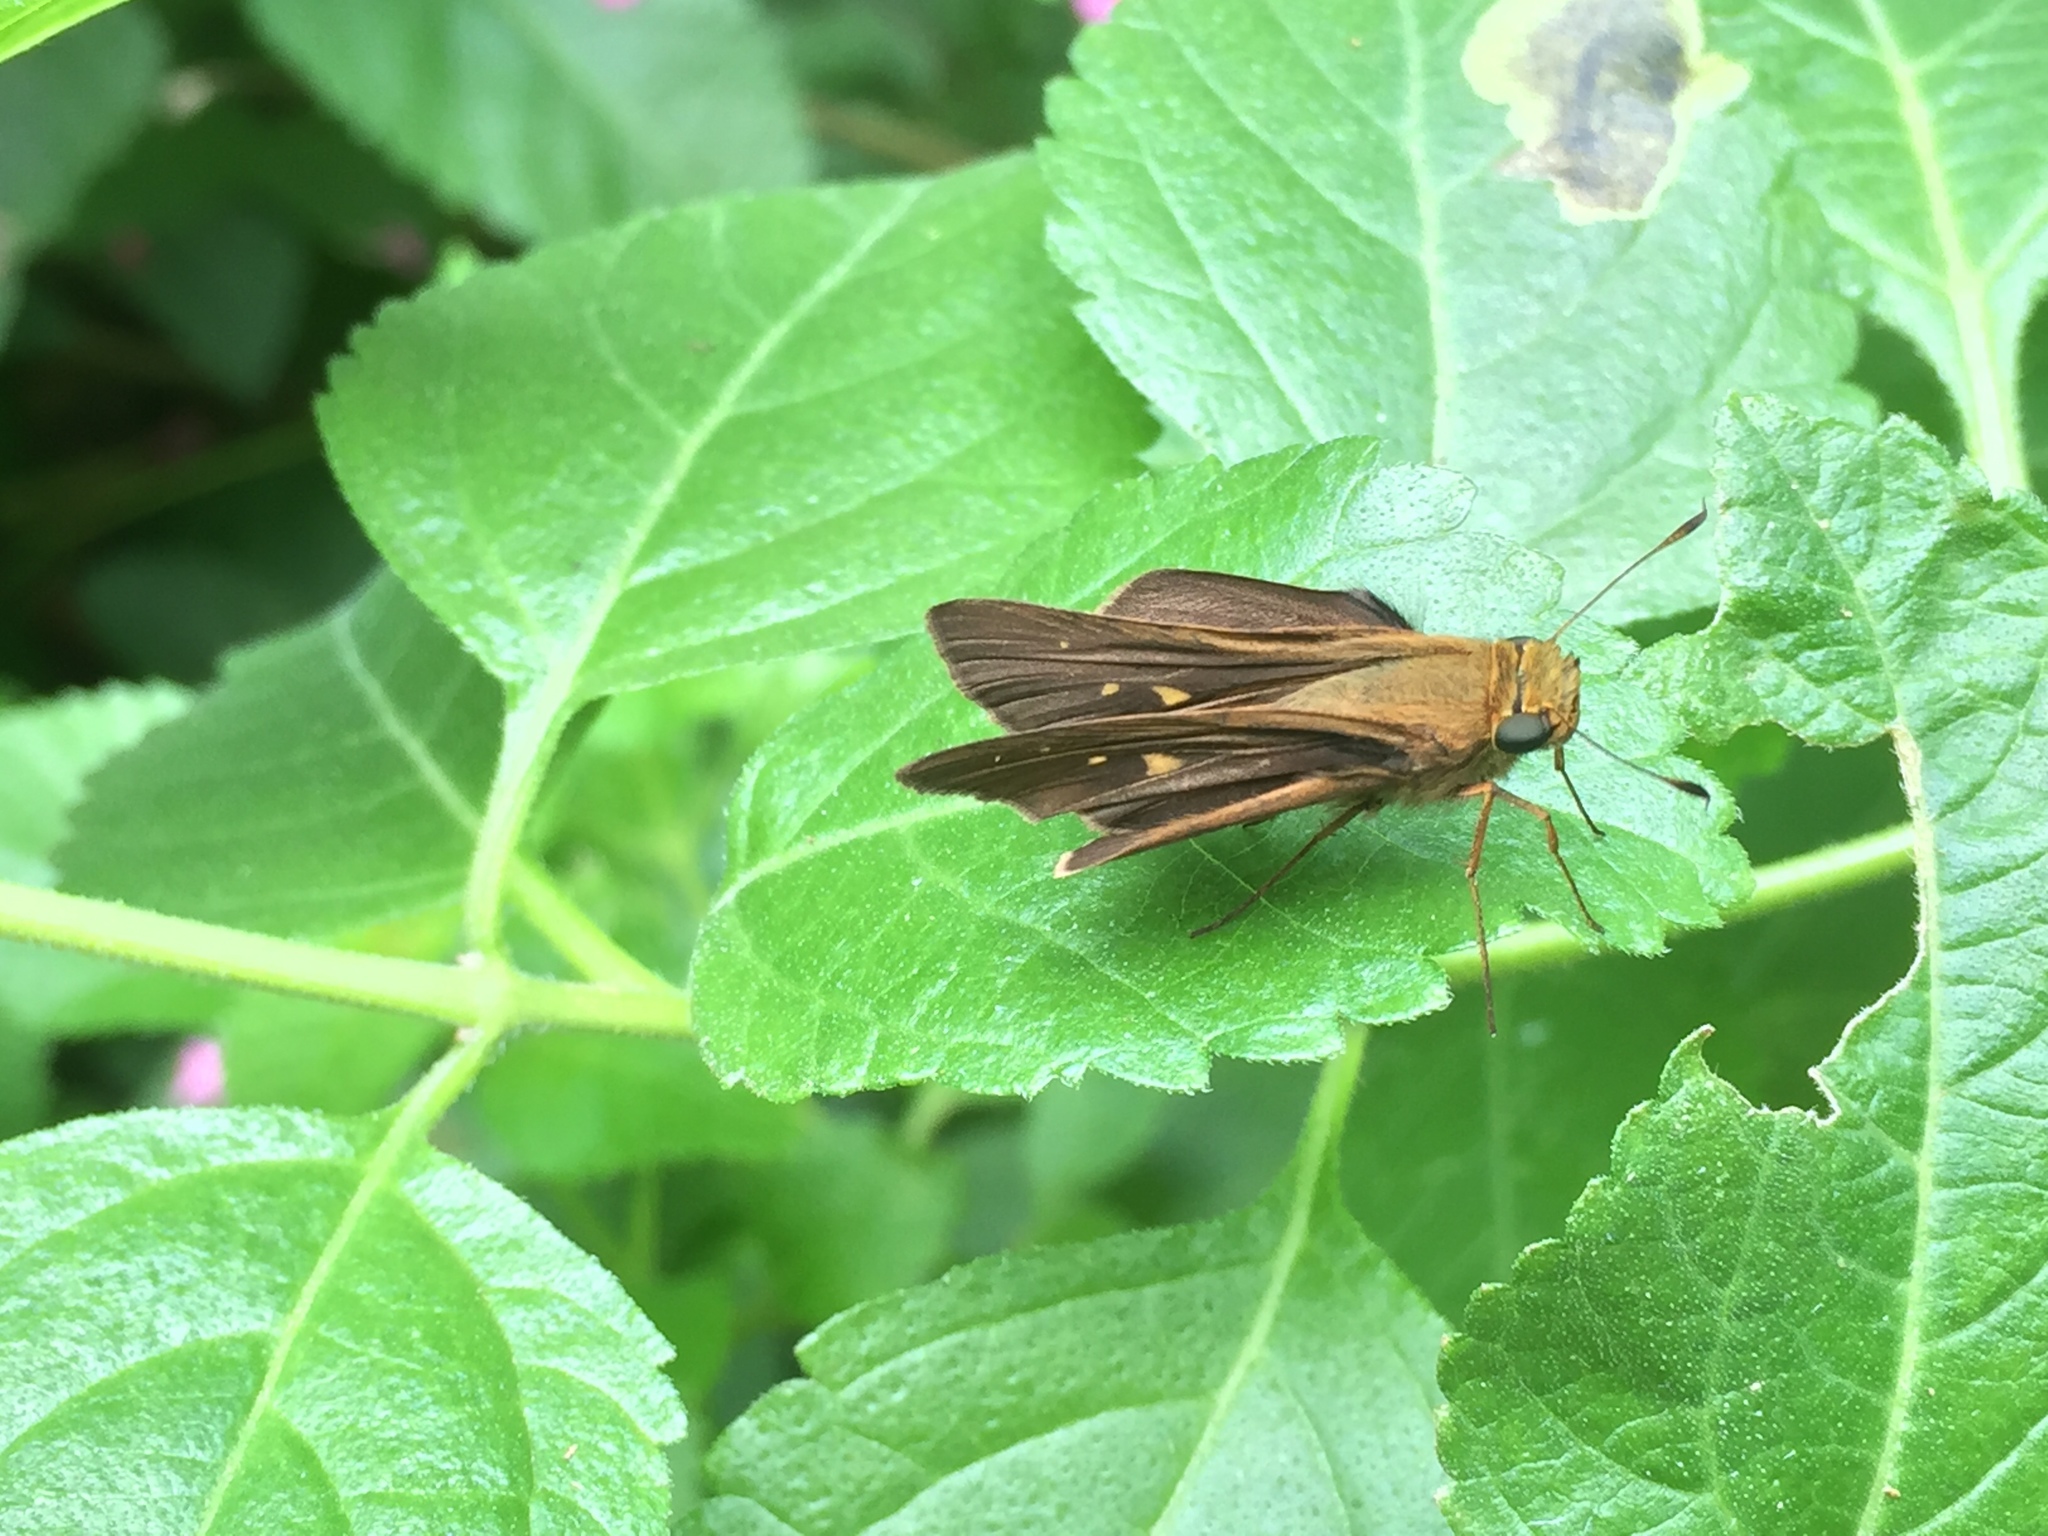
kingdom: Animalia
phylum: Arthropoda
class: Insecta
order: Lepidoptera
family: Hesperiidae
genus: Panoquina
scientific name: Panoquina ocola
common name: Ocola skipper
